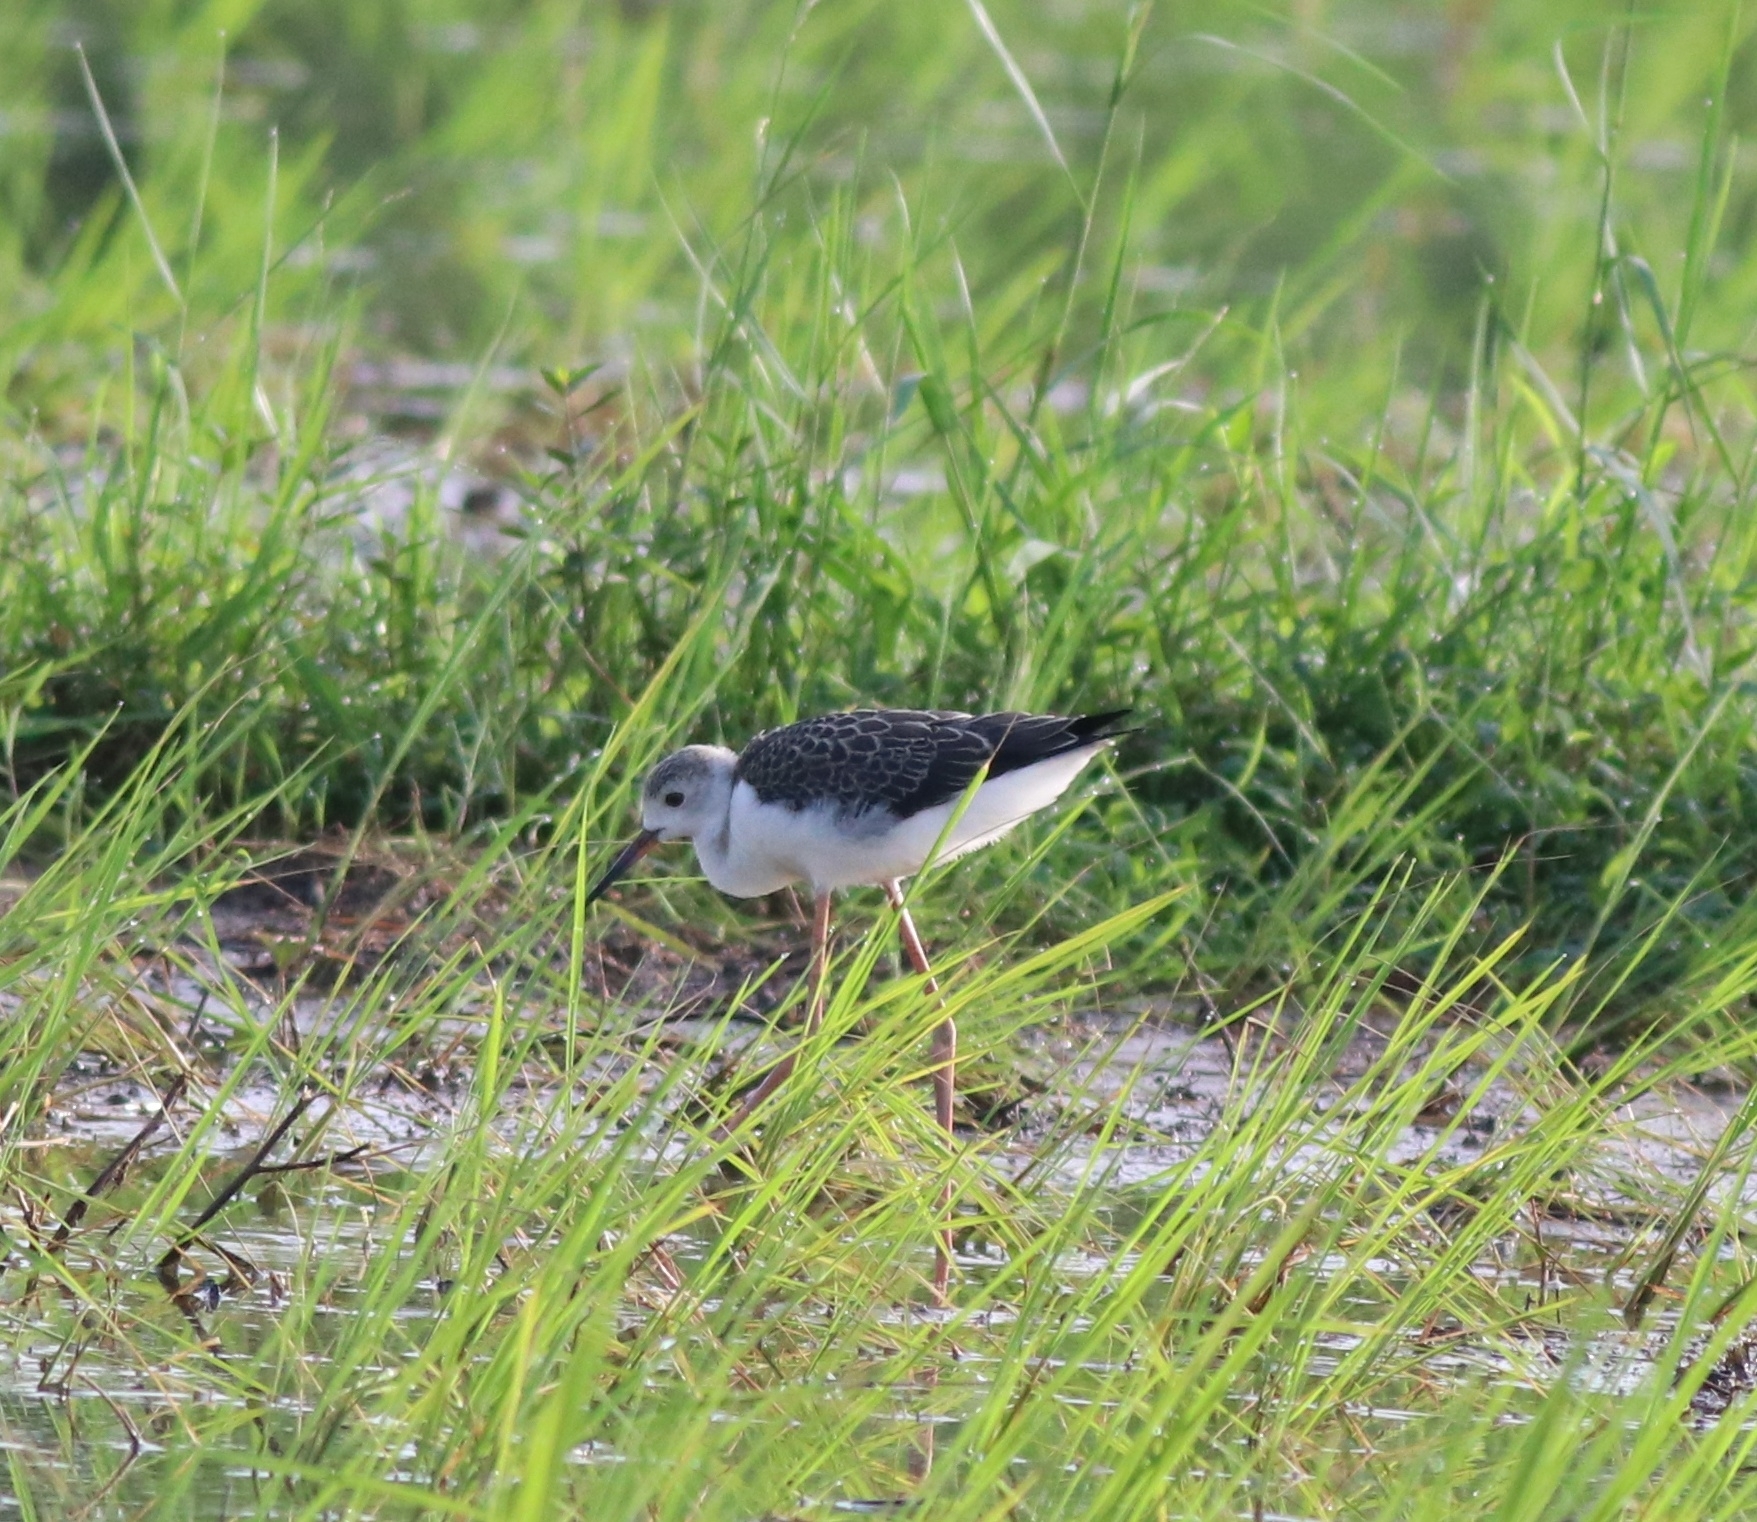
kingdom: Animalia
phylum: Chordata
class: Aves
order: Charadriiformes
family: Recurvirostridae
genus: Himantopus
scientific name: Himantopus himantopus
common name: Black-winged stilt
